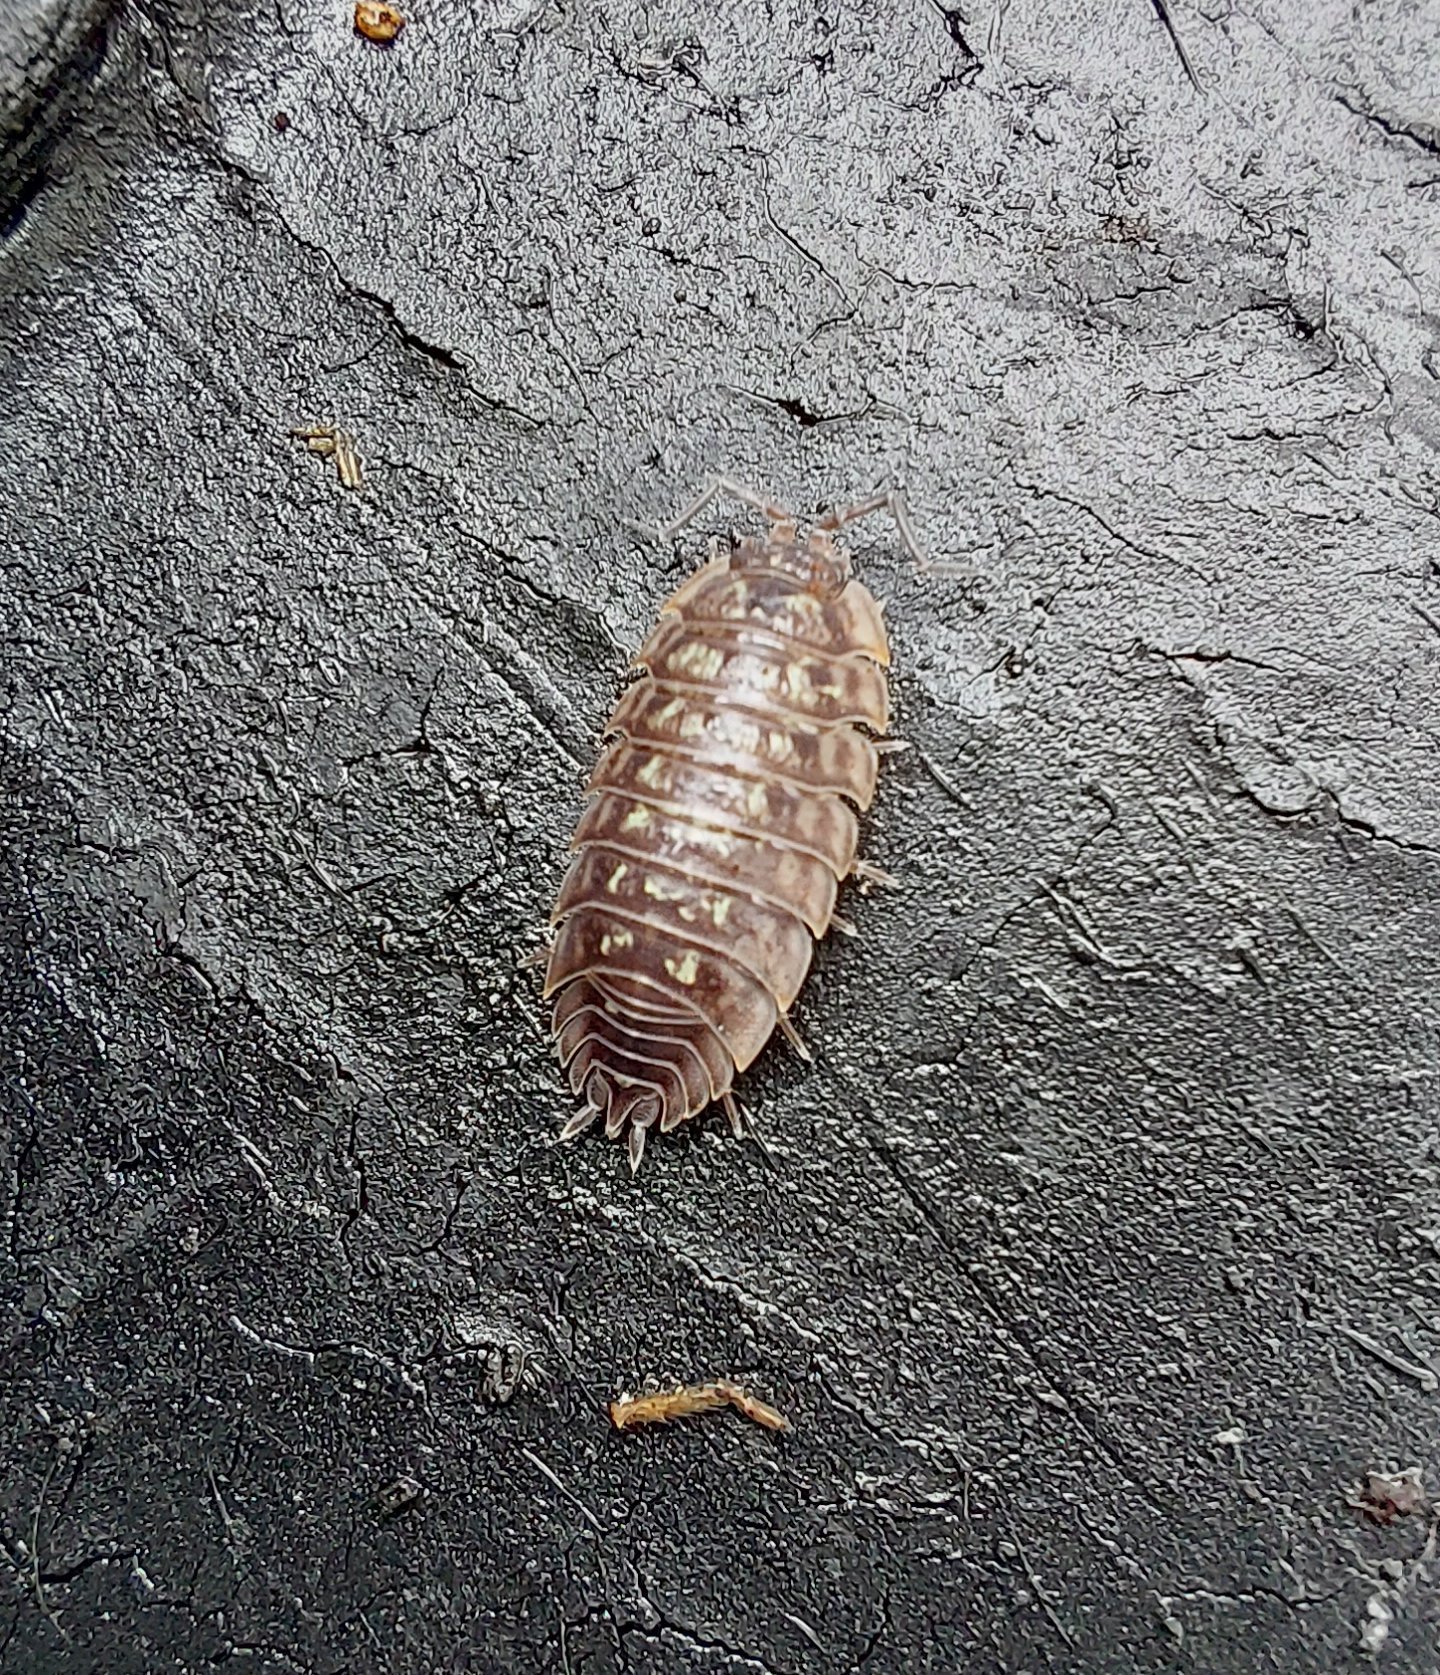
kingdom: Animalia
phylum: Arthropoda
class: Malacostraca
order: Isopoda
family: Oniscidae
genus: Oniscus
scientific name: Oniscus asellus
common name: Common shiny woodlouse
